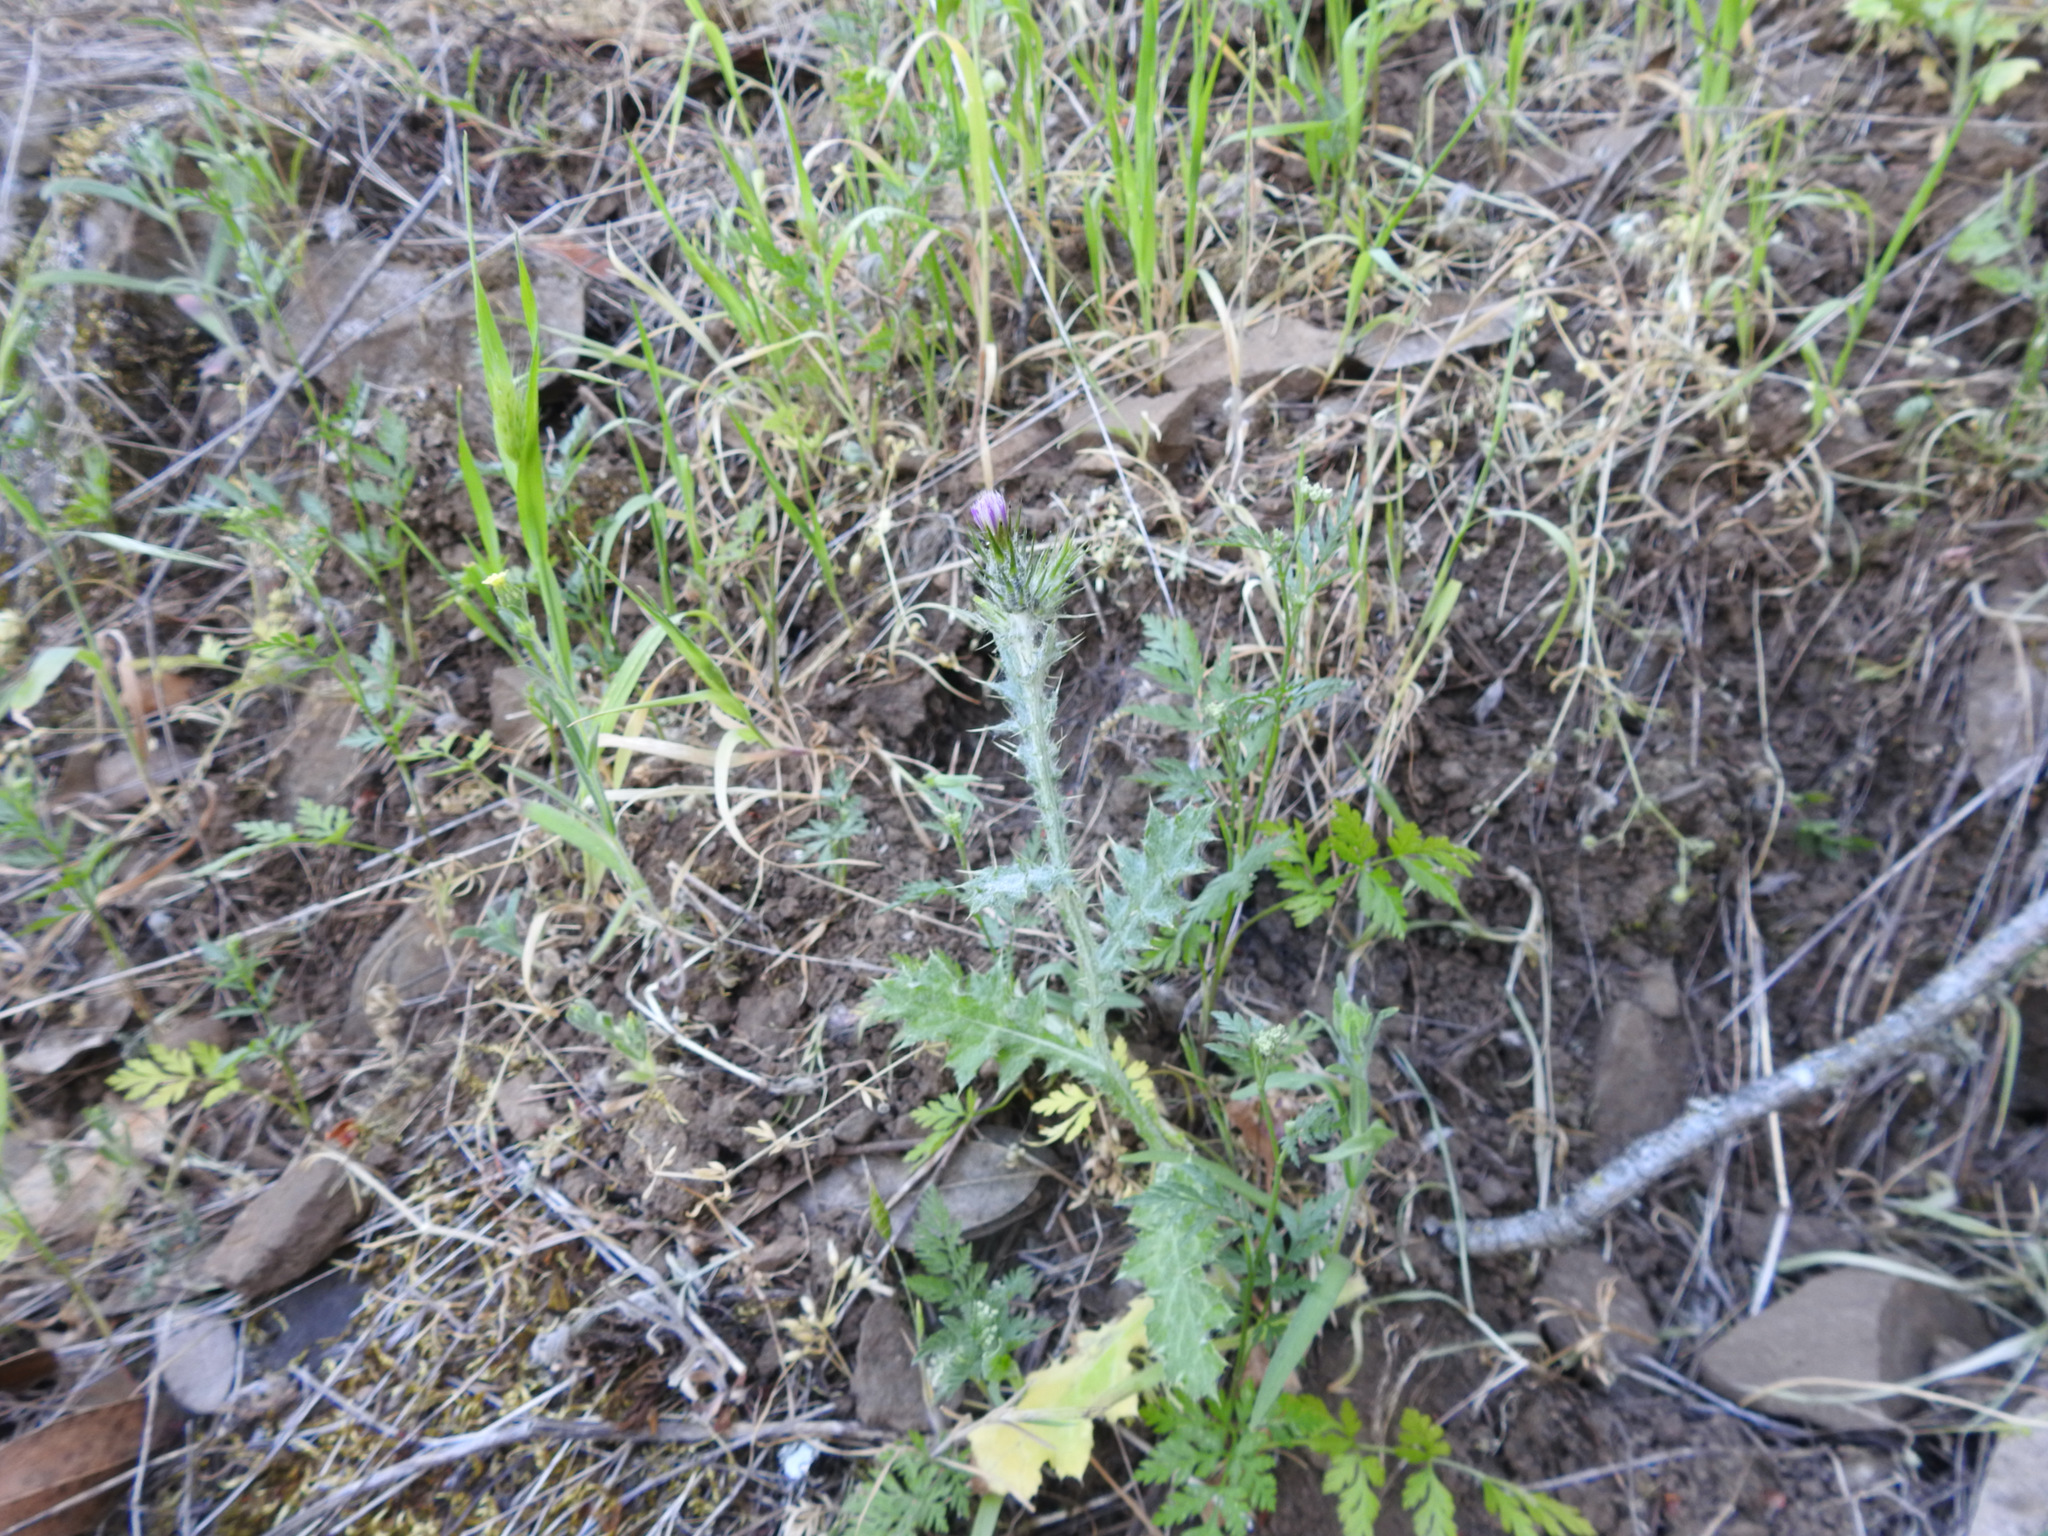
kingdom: Plantae
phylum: Tracheophyta
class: Magnoliopsida
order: Asterales
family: Asteraceae
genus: Carduus
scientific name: Carduus pycnocephalus
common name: Plymouth thistle
